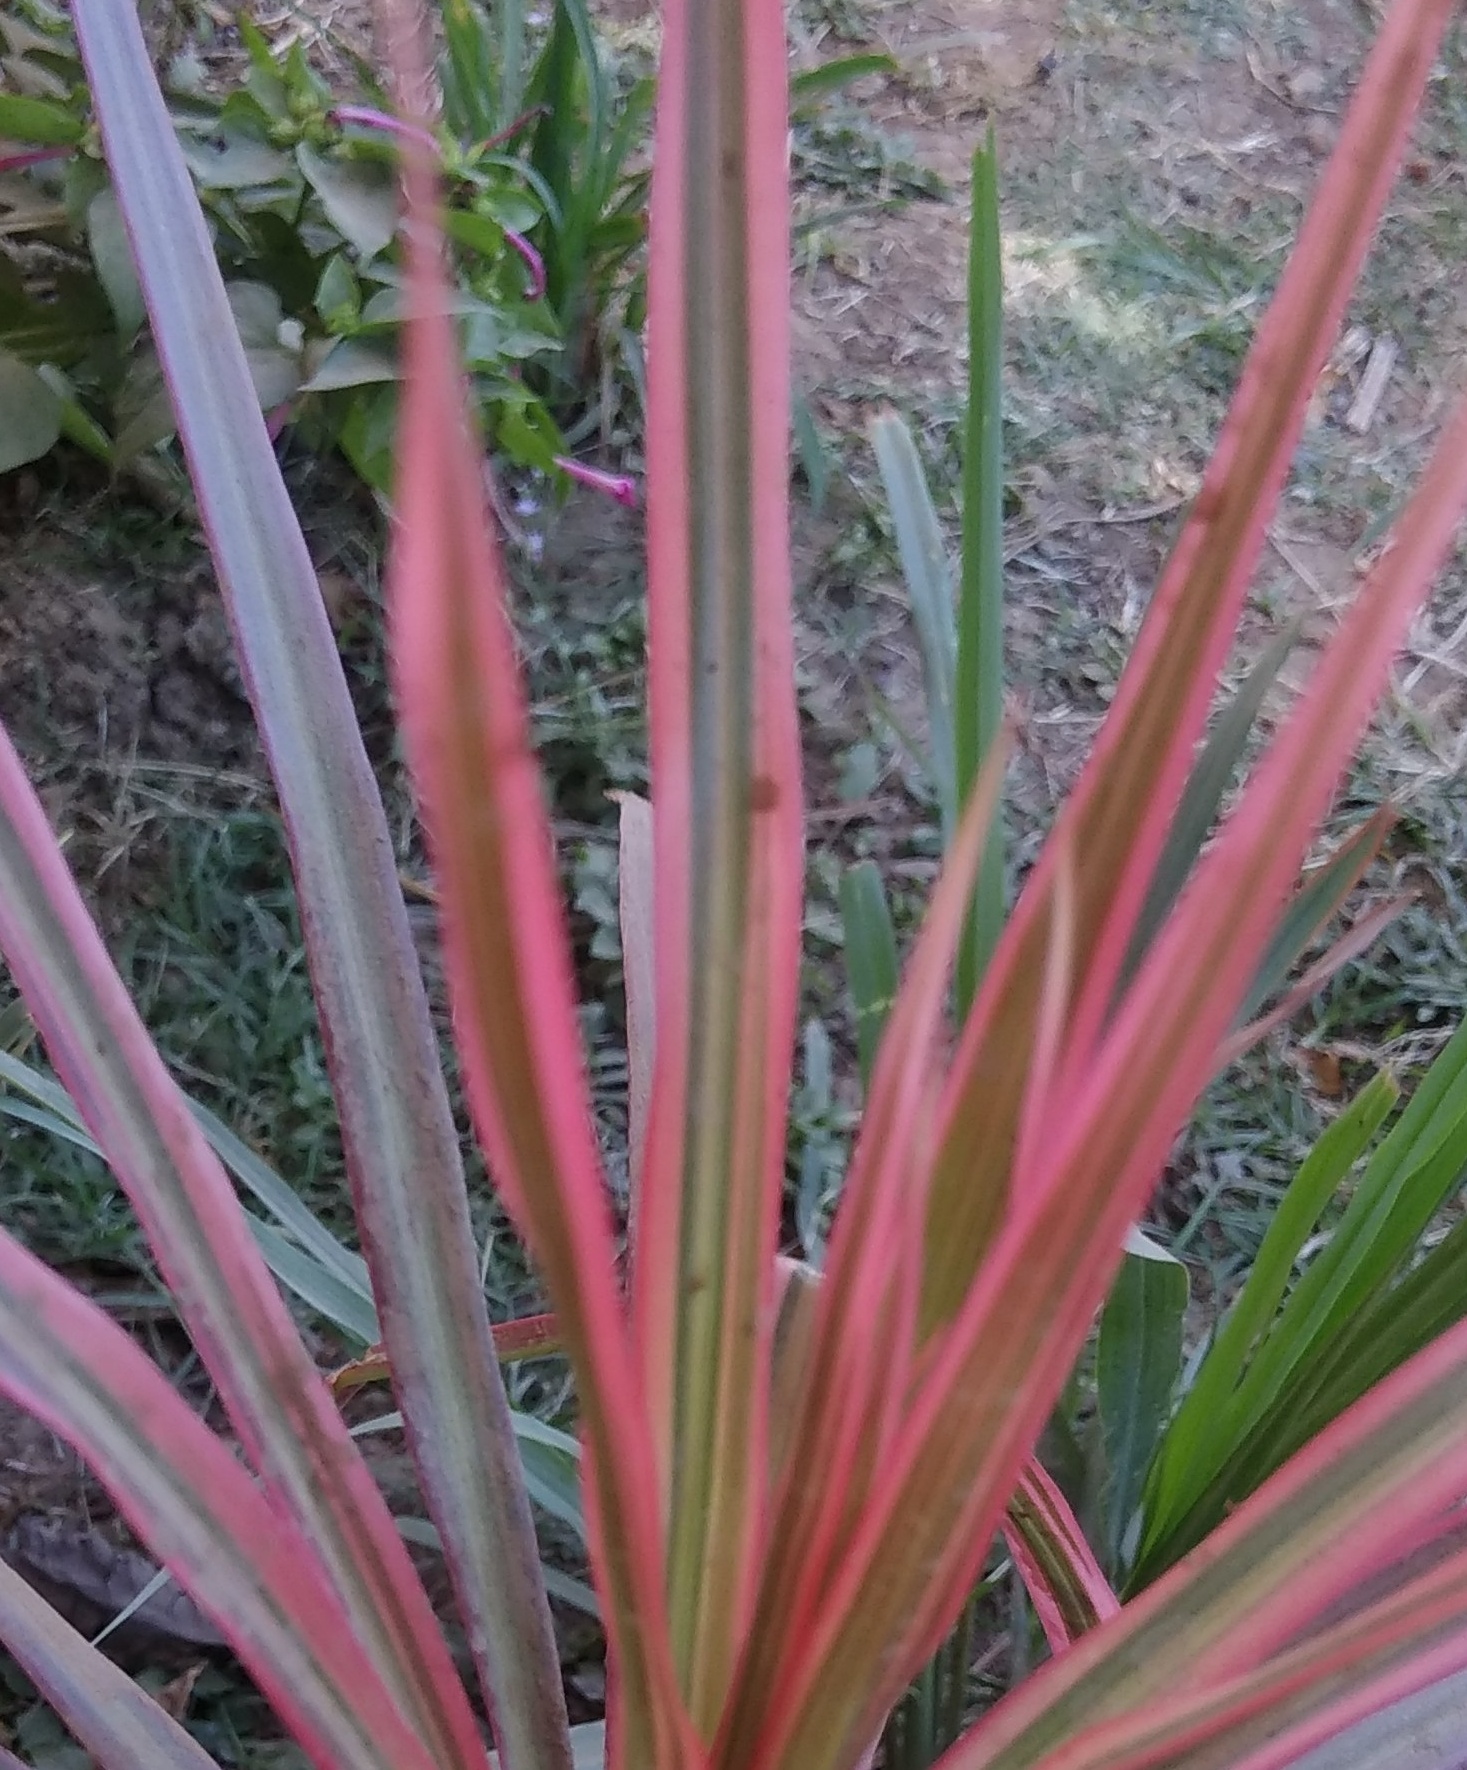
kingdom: Plantae
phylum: Tracheophyta
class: Liliopsida
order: Asparagales
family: Asparagaceae
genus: Dracaena
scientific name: Dracaena reflexa
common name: Song-of-india
